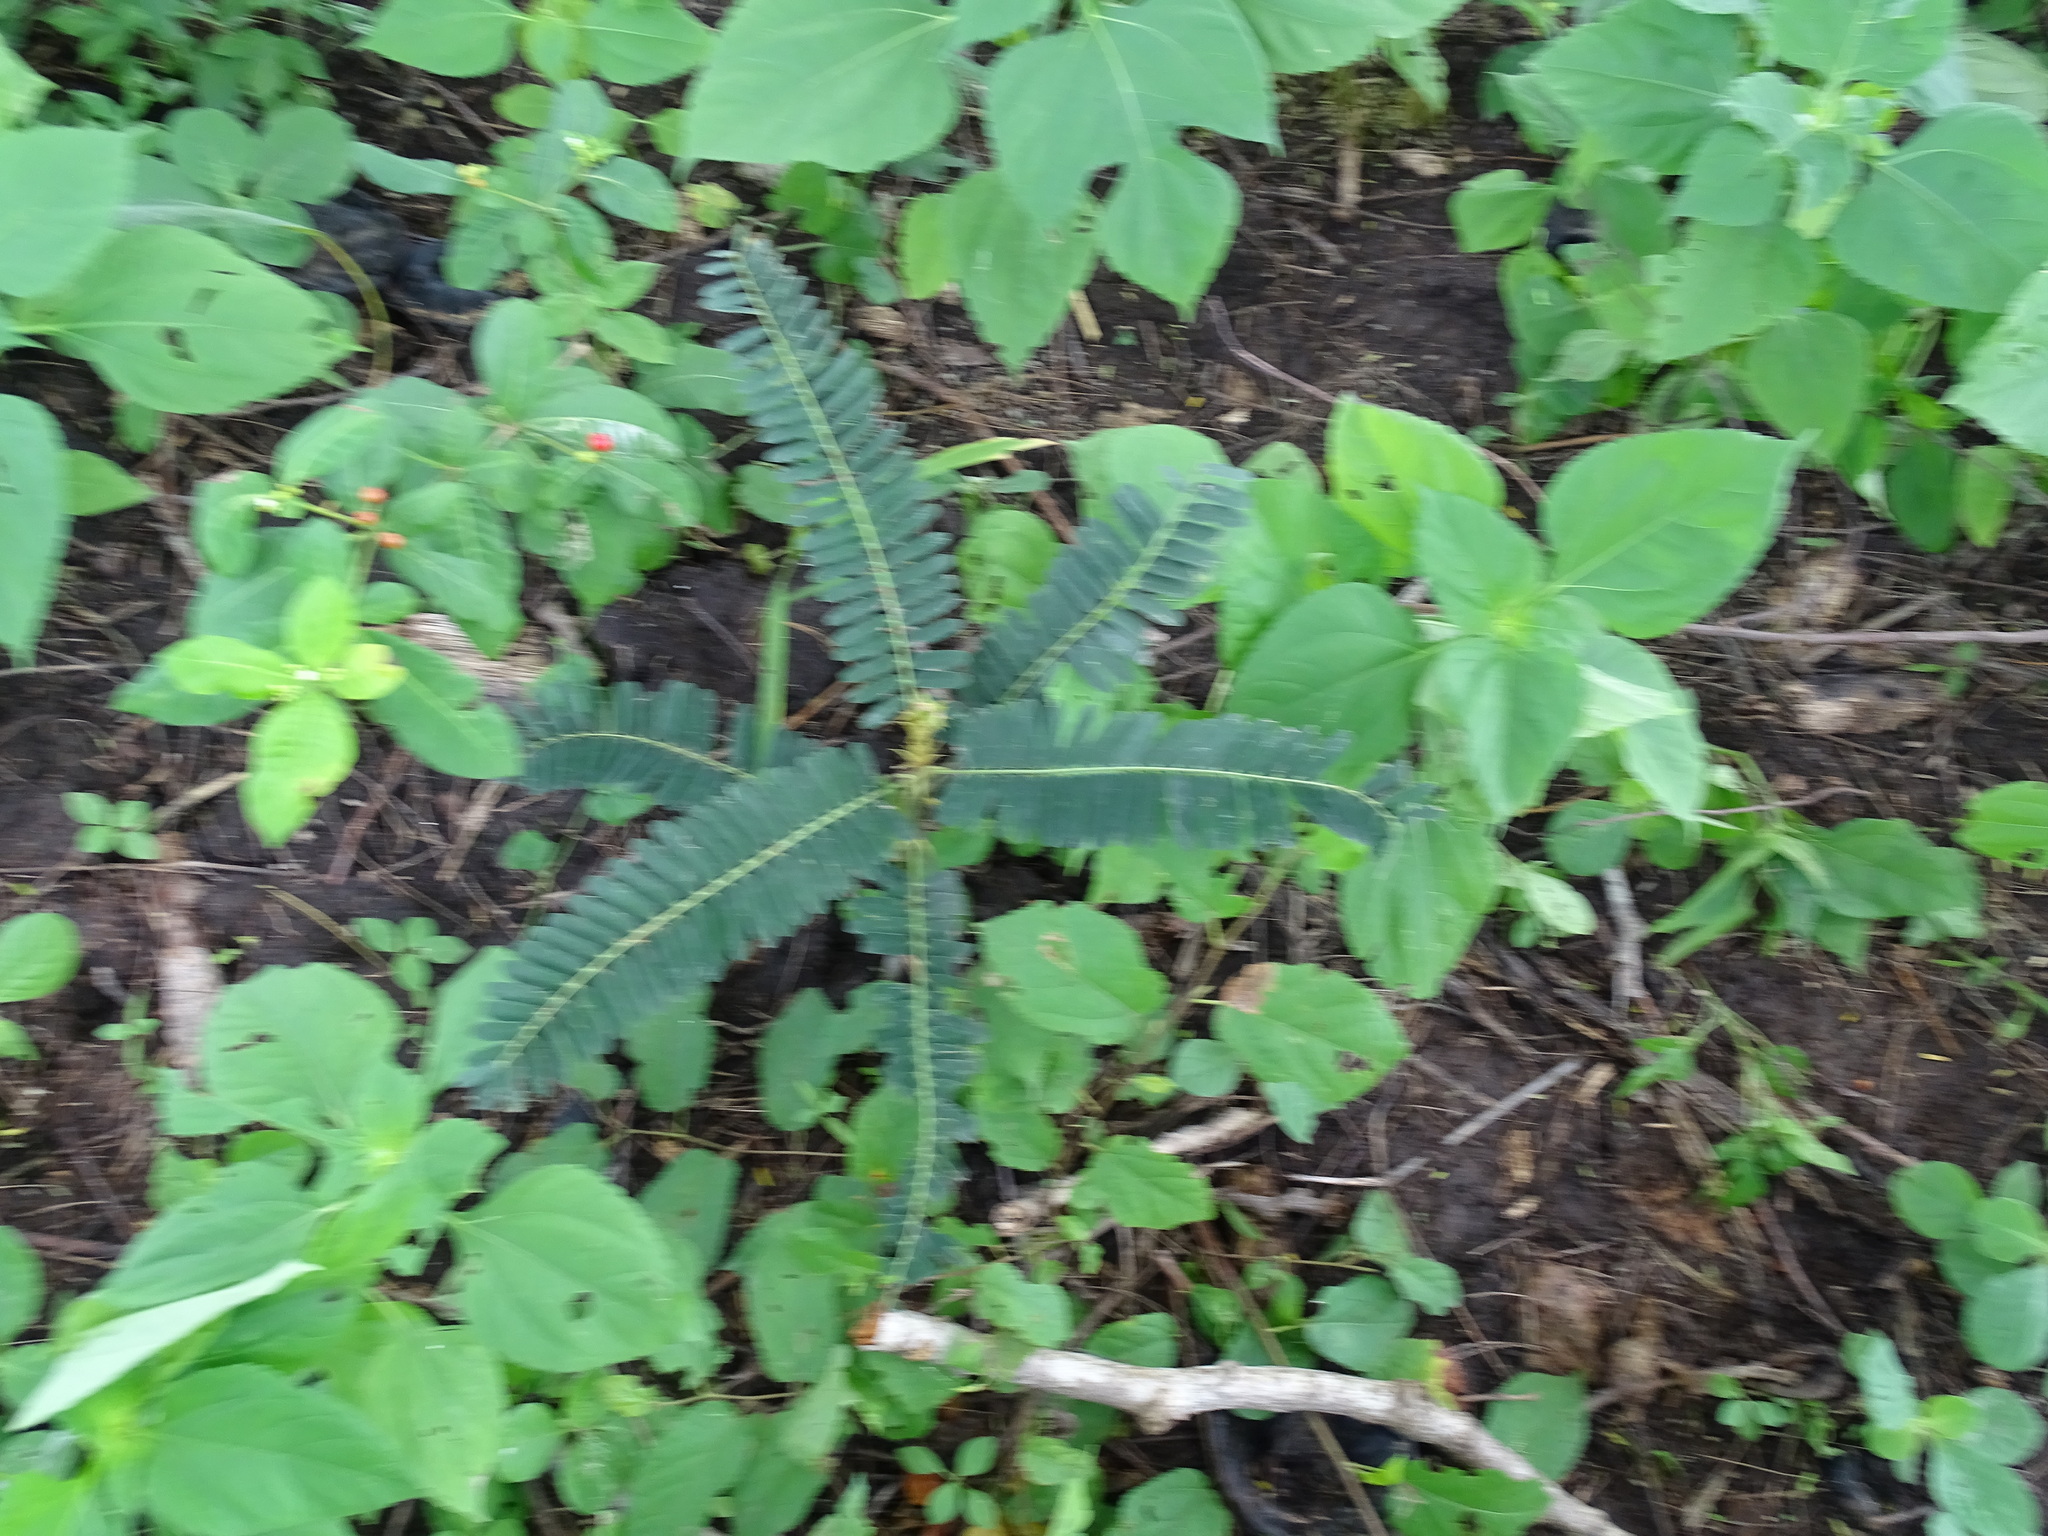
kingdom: Plantae
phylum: Tracheophyta
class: Magnoliopsida
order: Fabales
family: Fabaceae
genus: Machaerium
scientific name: Machaerium isadelphum
